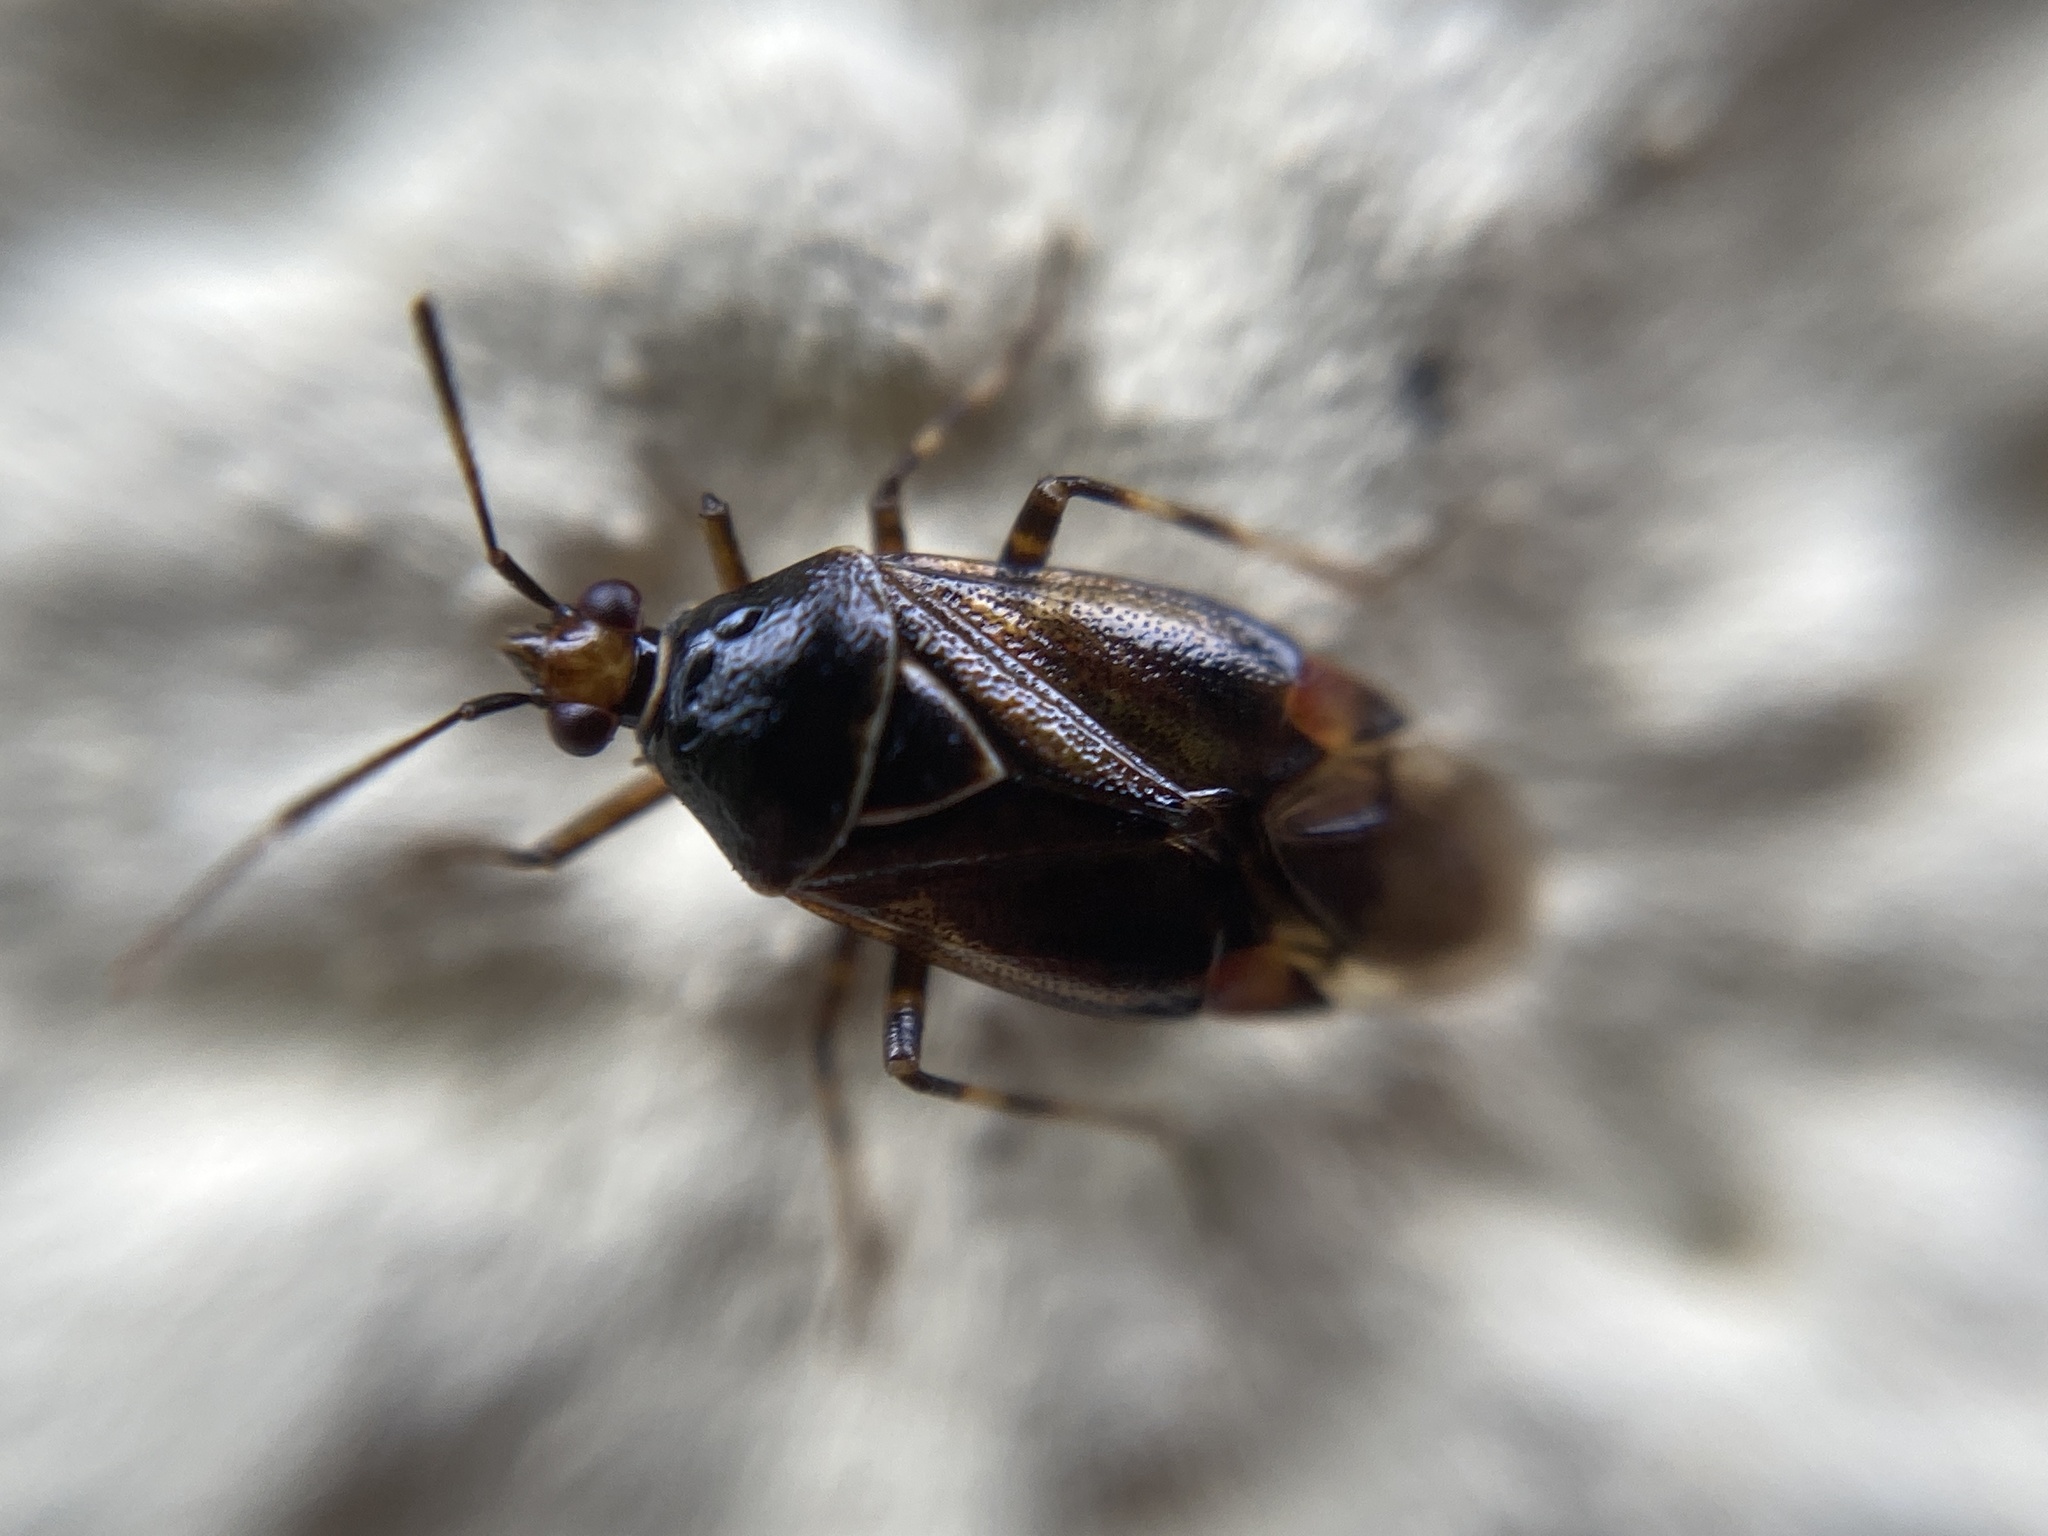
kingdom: Animalia
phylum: Arthropoda
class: Insecta
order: Hemiptera
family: Miridae
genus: Deraeocoris
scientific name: Deraeocoris ruber
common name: Plant bug
